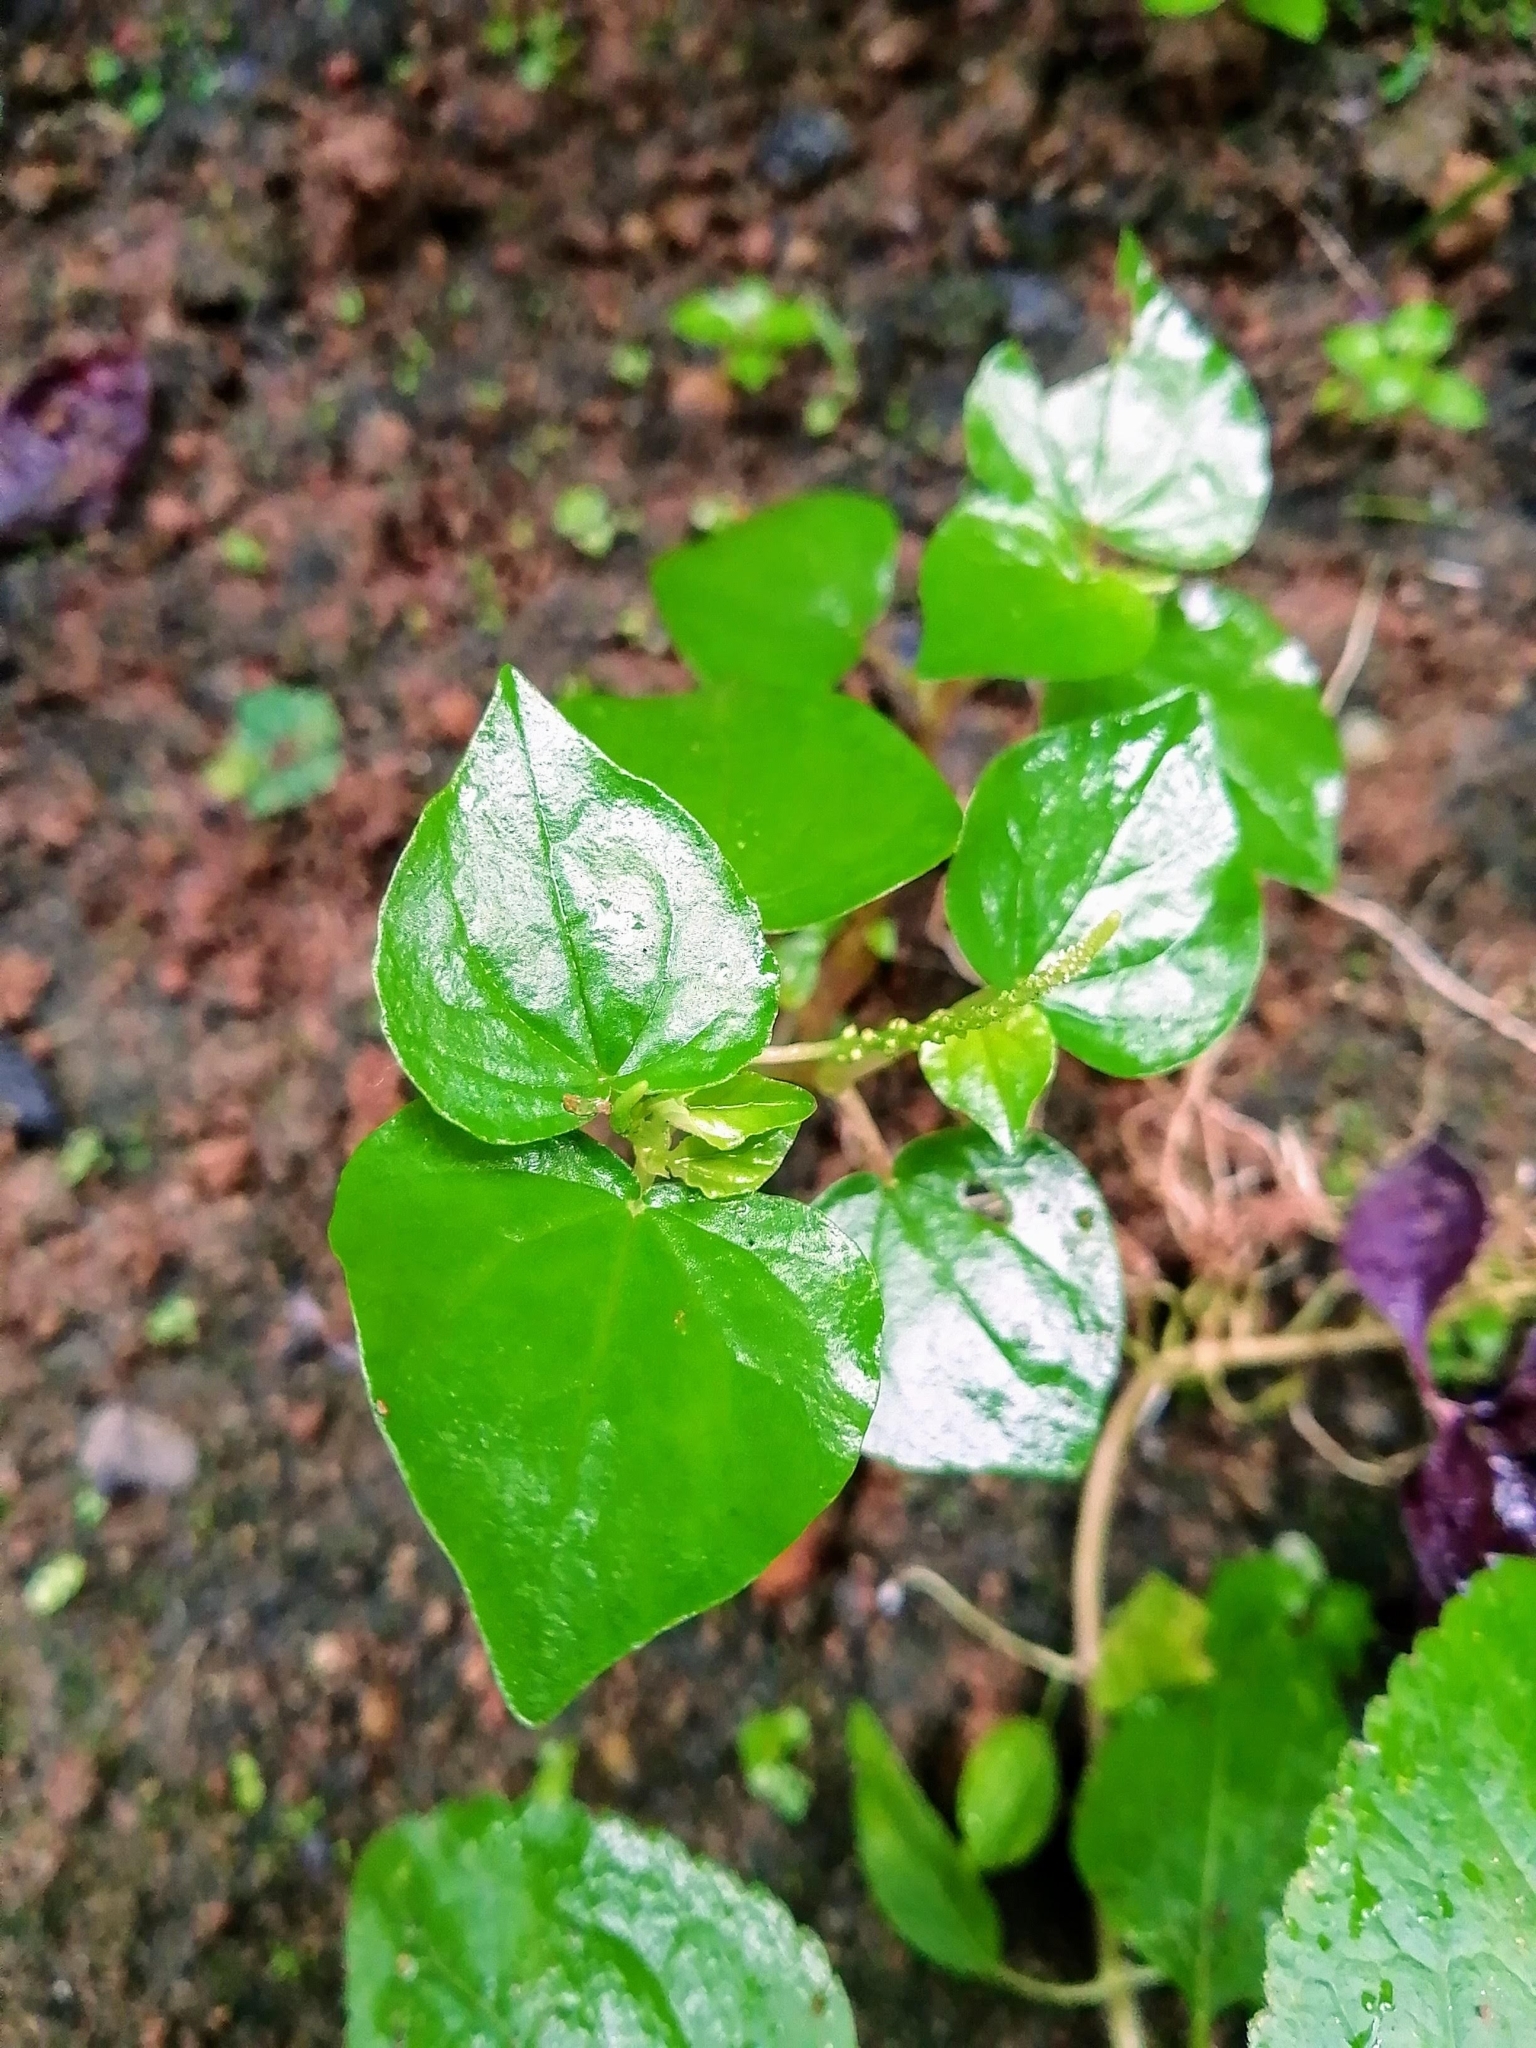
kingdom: Plantae
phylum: Tracheophyta
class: Magnoliopsida
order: Piperales
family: Piperaceae
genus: Peperomia
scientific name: Peperomia pellucida
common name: Man to man
